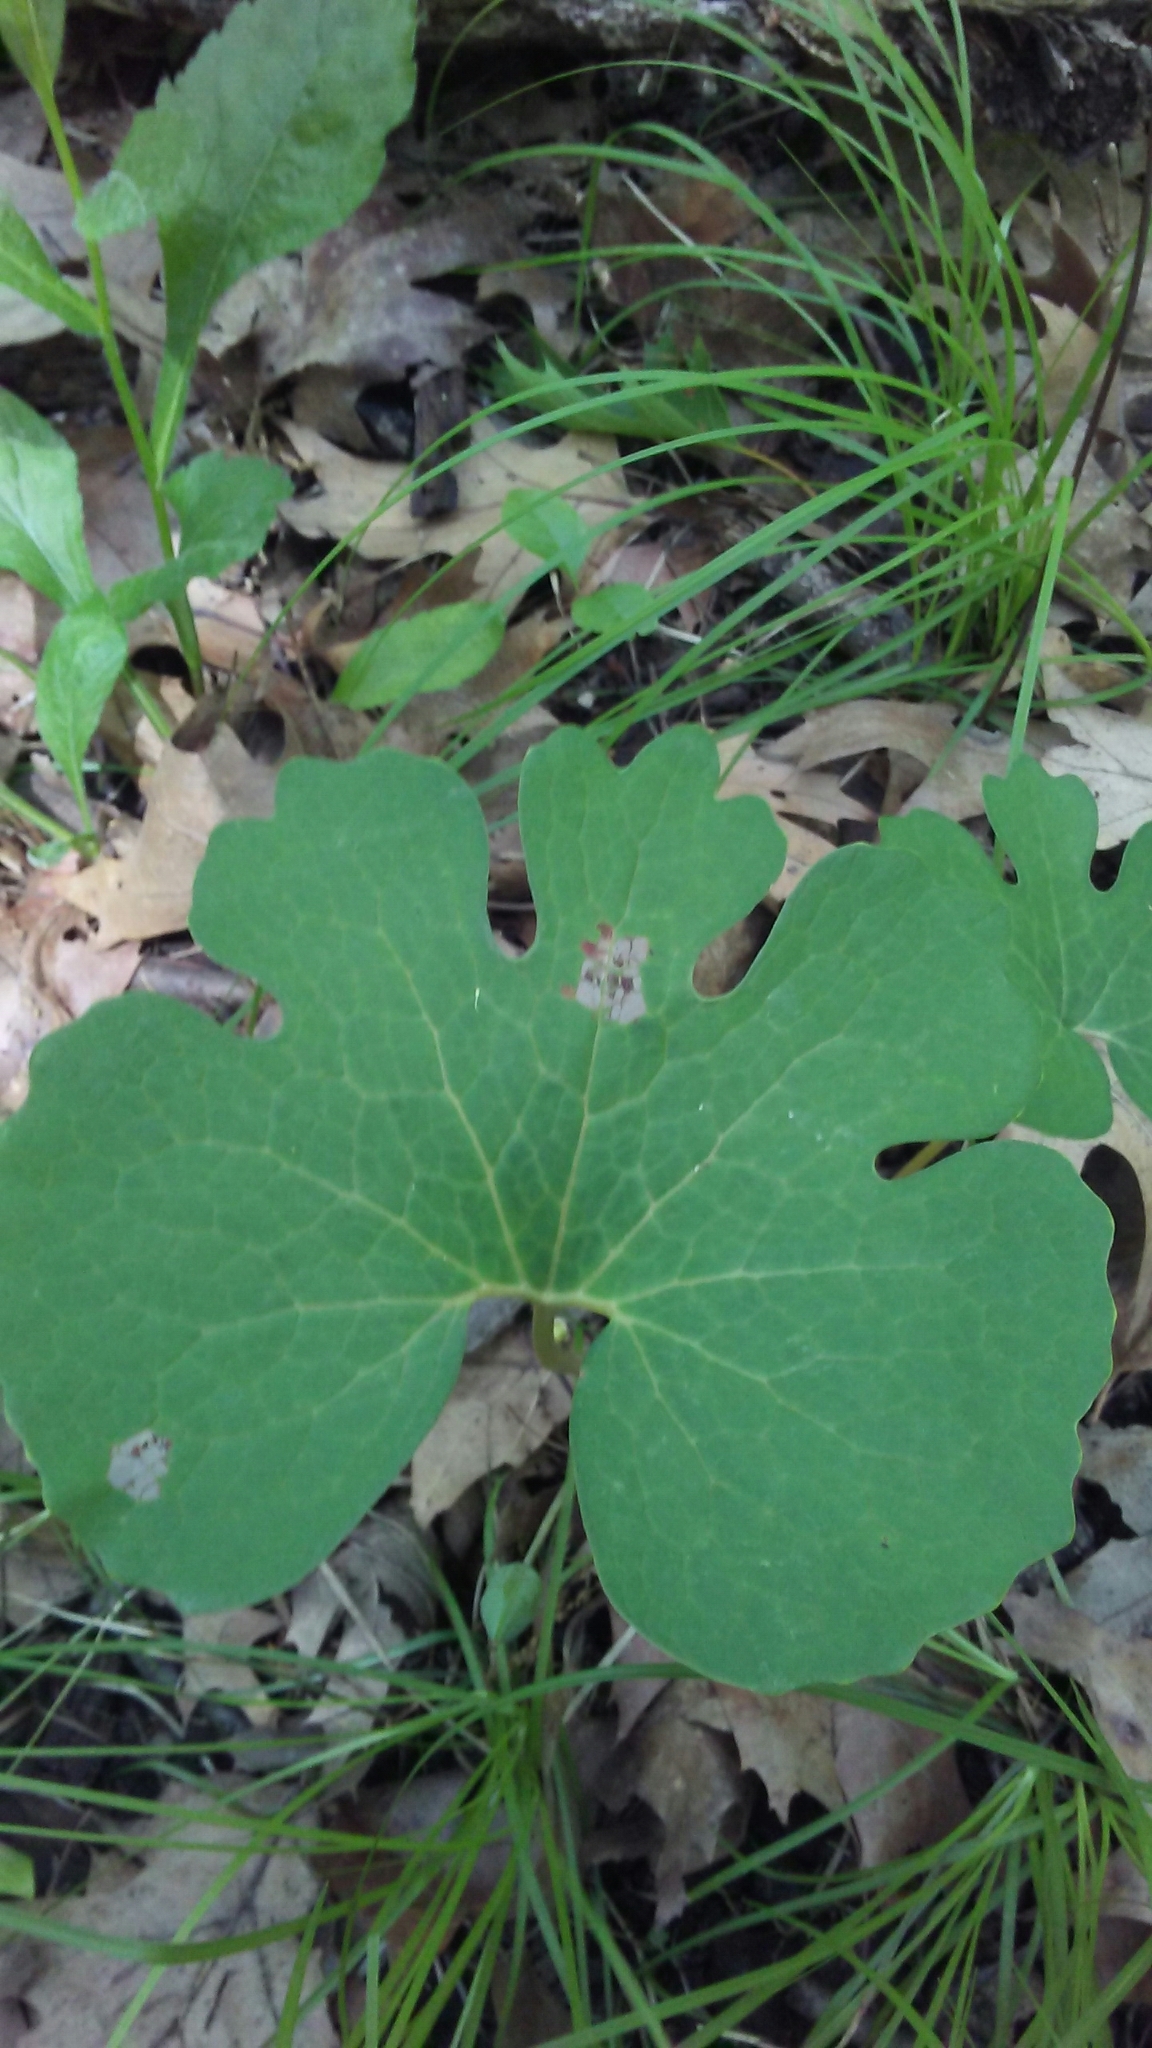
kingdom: Plantae
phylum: Tracheophyta
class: Magnoliopsida
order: Ranunculales
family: Papaveraceae
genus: Sanguinaria
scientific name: Sanguinaria canadensis
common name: Bloodroot
